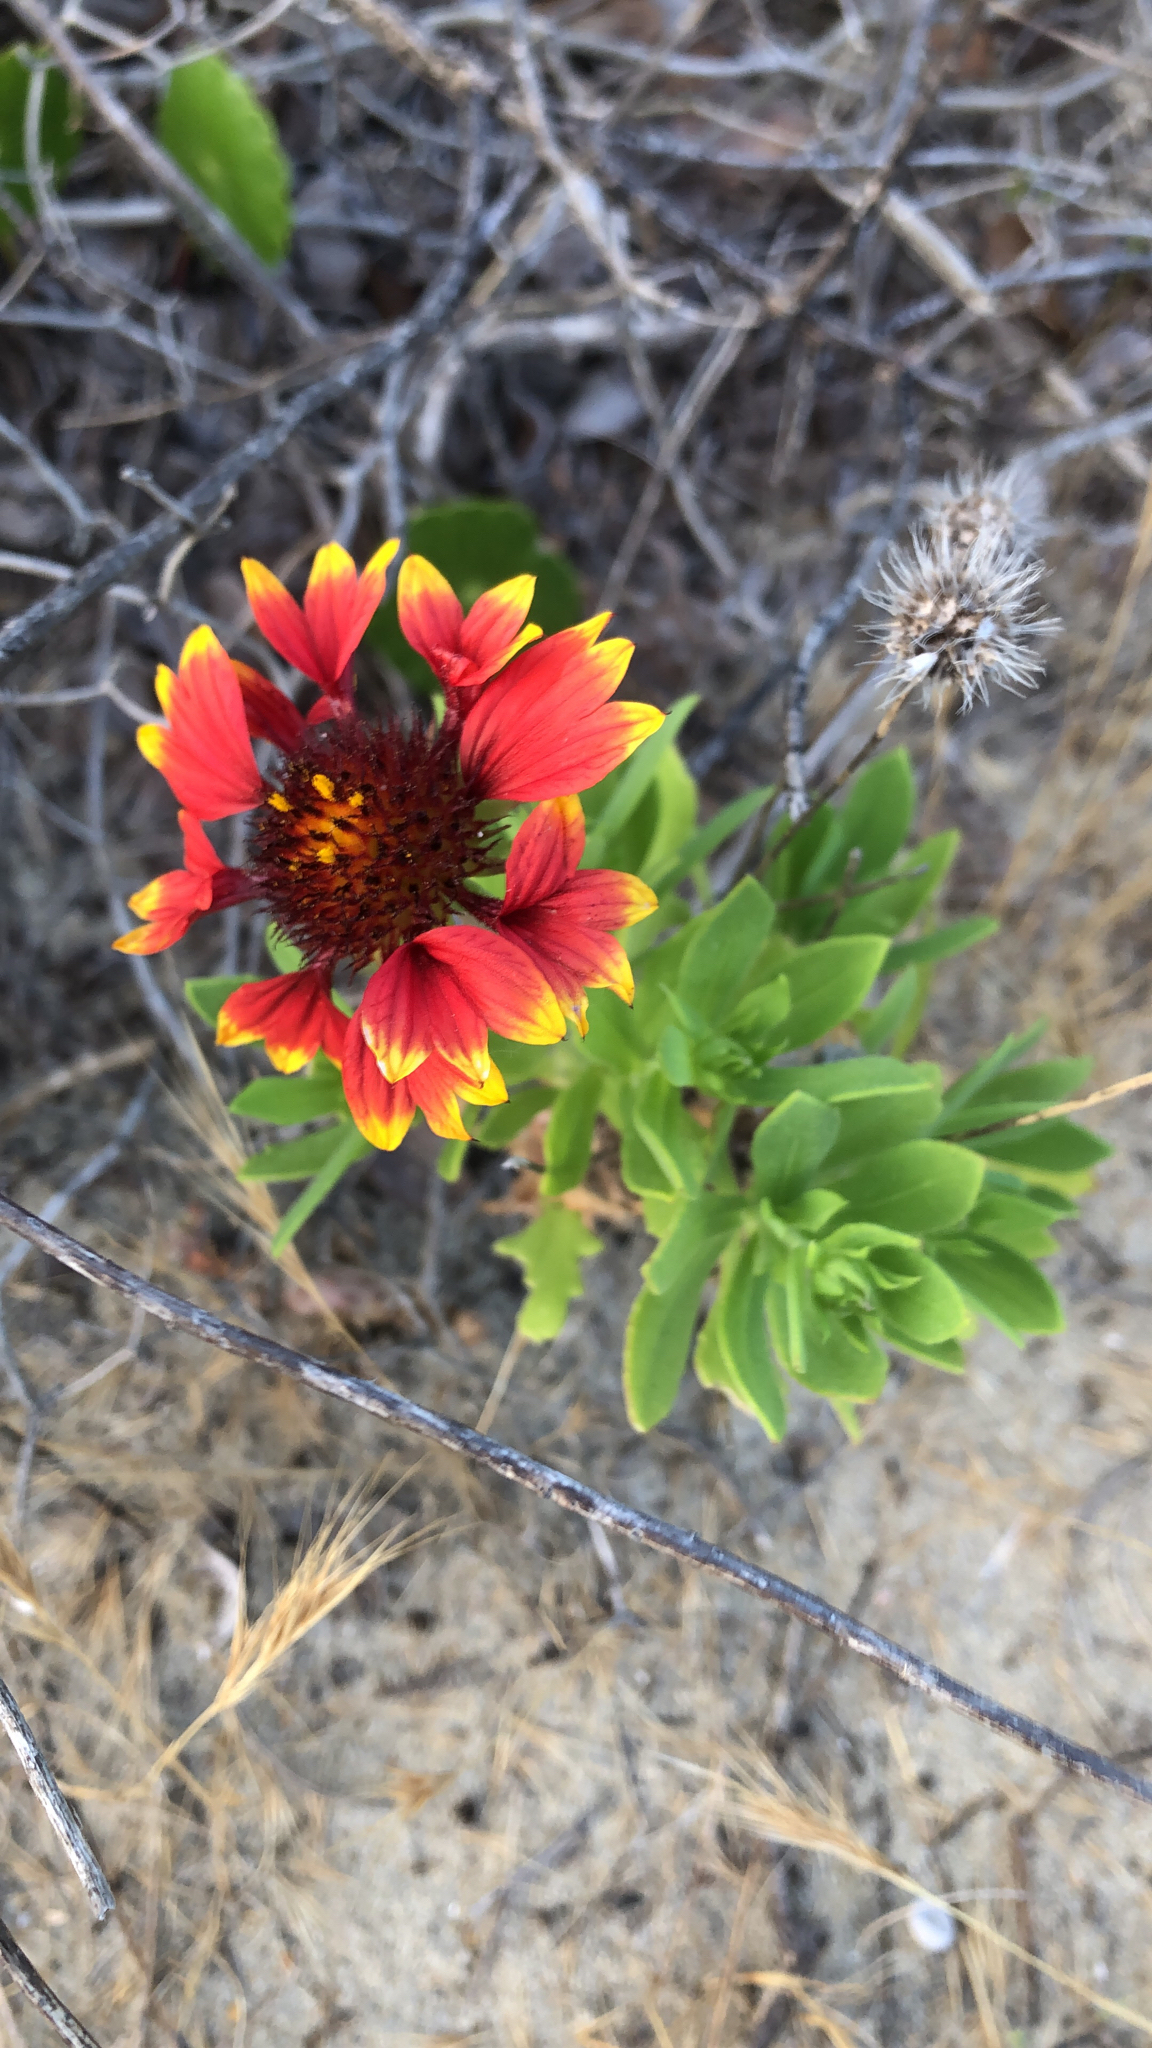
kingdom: Plantae
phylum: Tracheophyta
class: Magnoliopsida
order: Asterales
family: Asteraceae
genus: Gaillardia
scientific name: Gaillardia pulchella
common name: Firewheel
